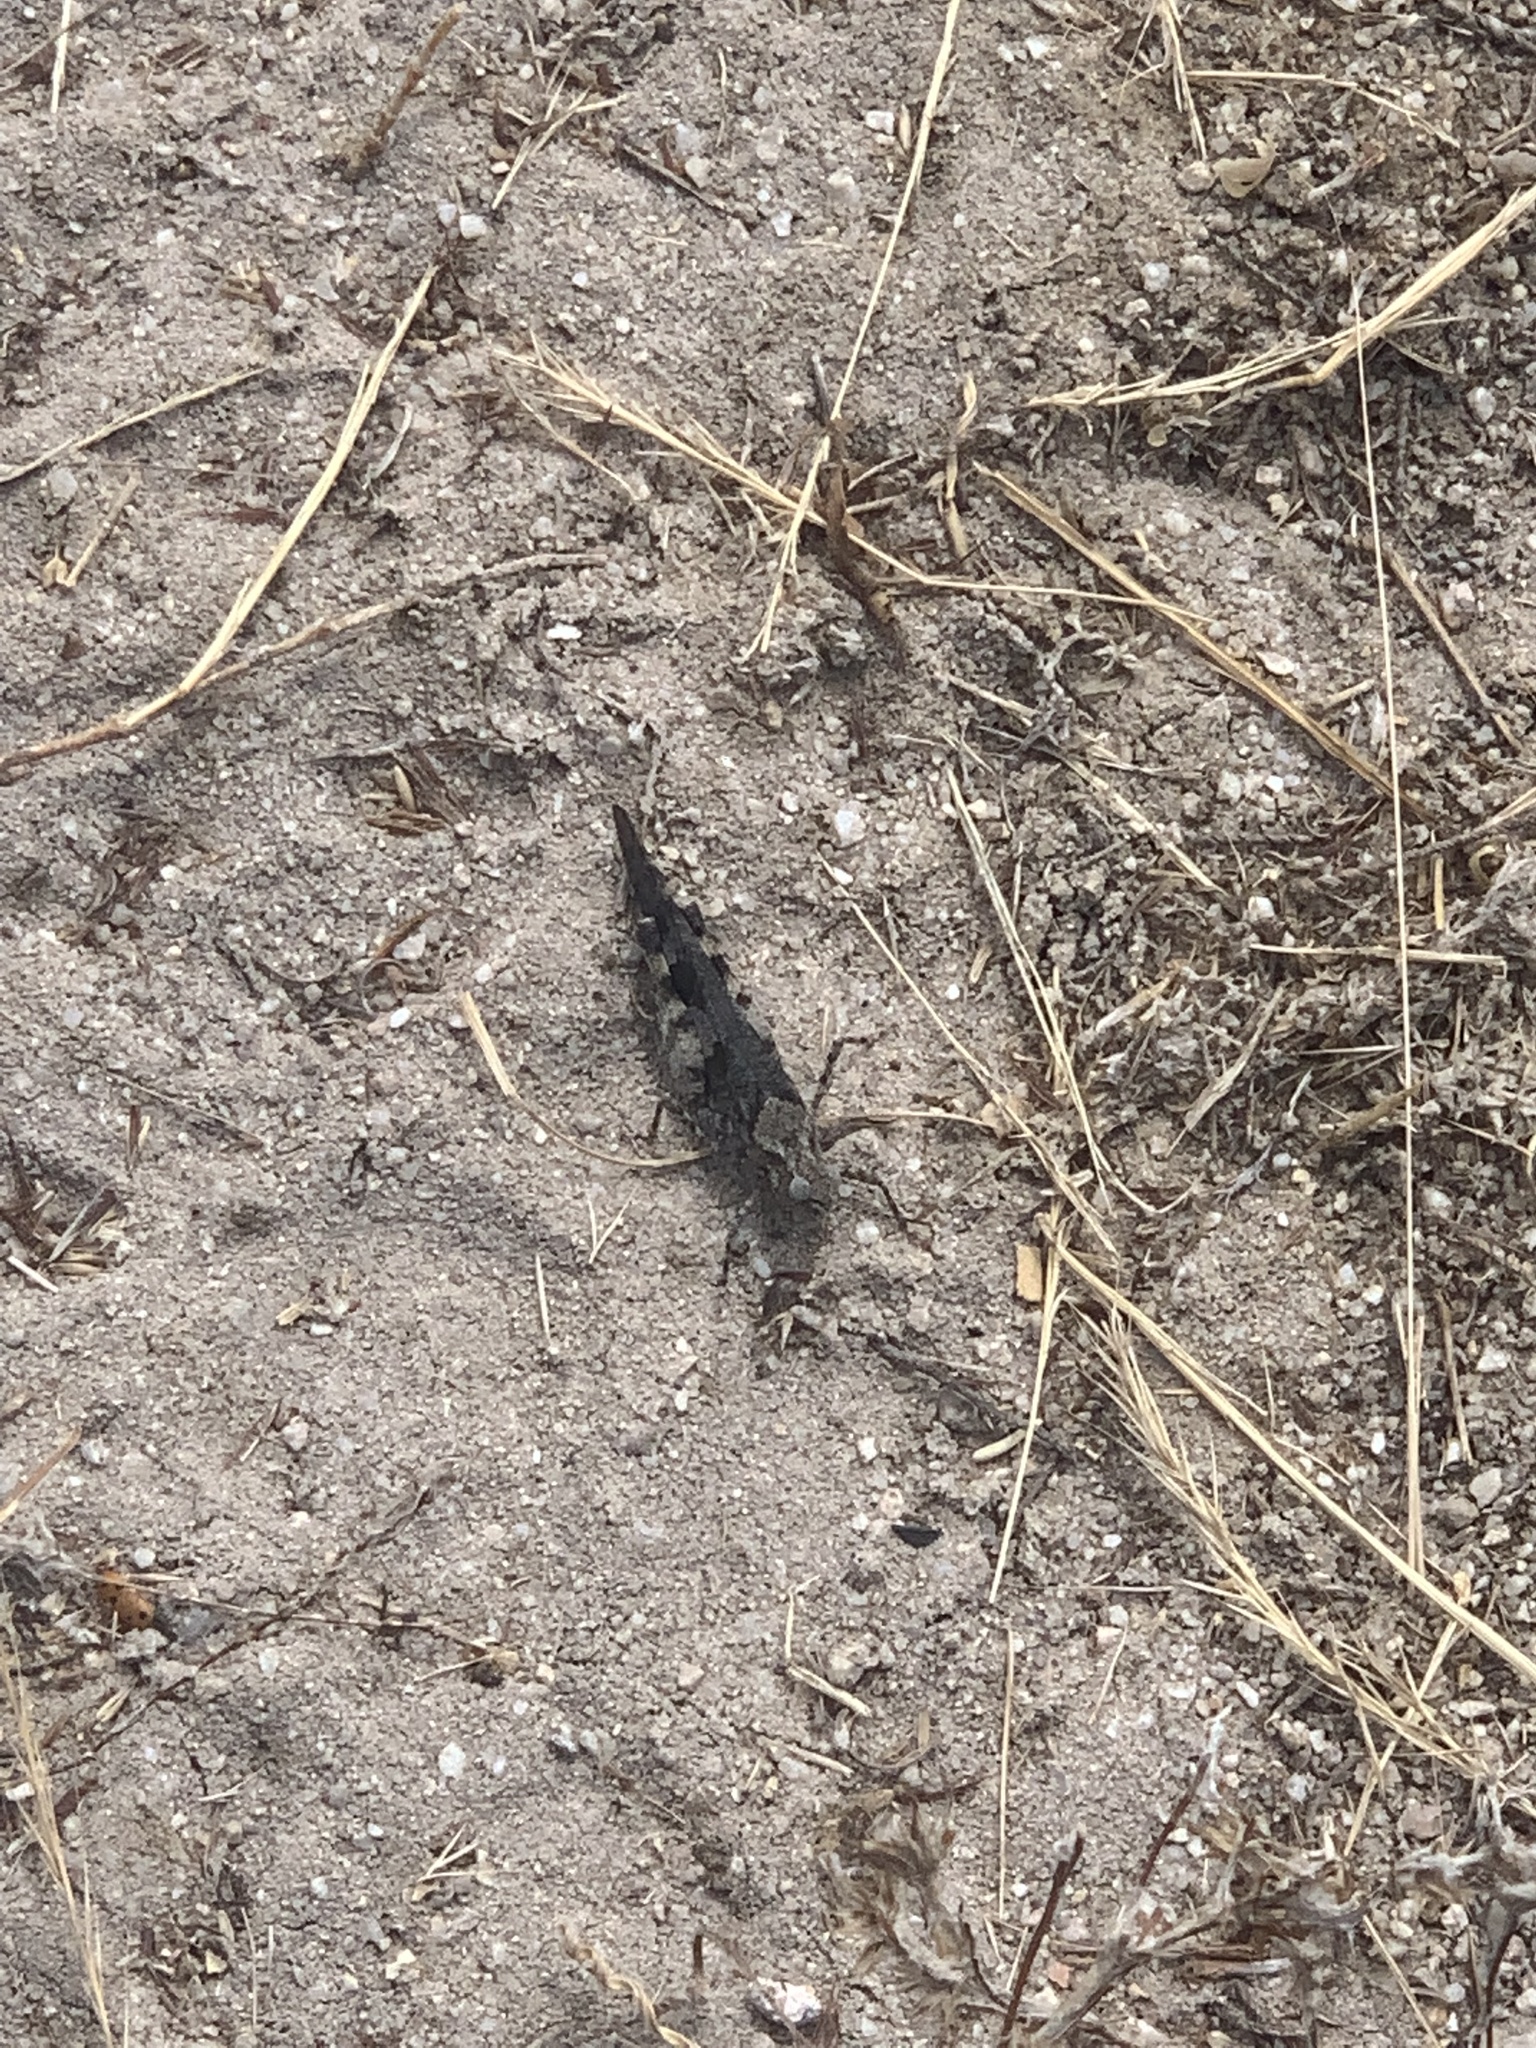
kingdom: Animalia
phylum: Arthropoda
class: Insecta
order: Orthoptera
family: Acrididae
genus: Trimerotropis
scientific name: Trimerotropis fontana
